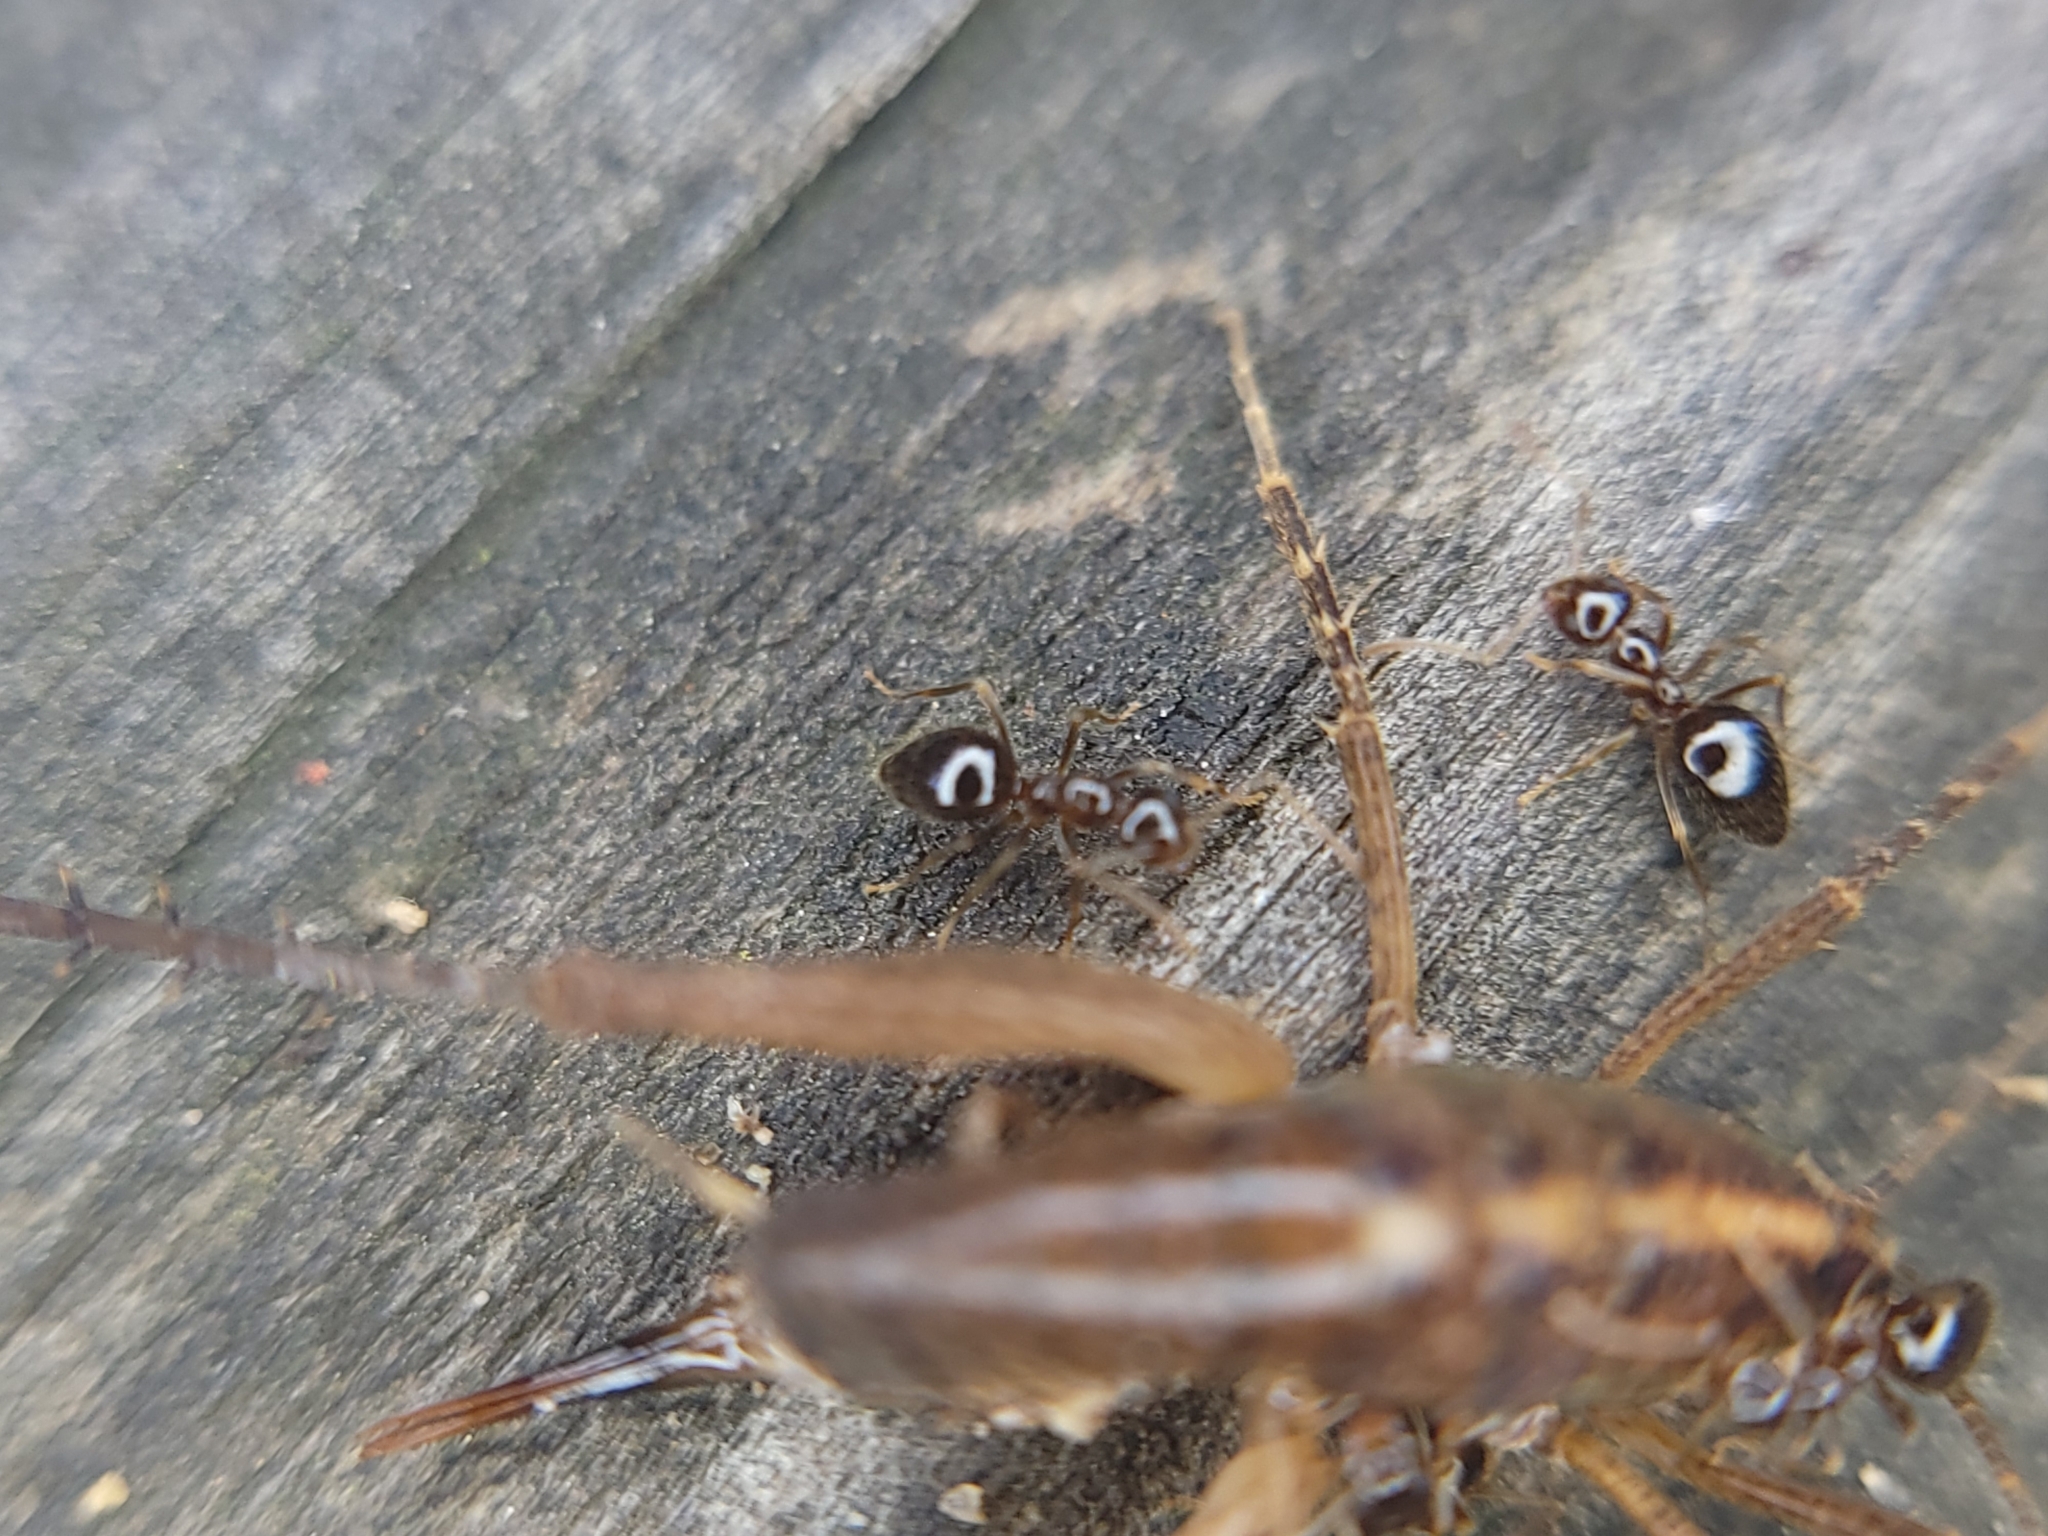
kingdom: Animalia
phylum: Arthropoda
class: Insecta
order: Hymenoptera
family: Formicidae
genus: Prenolepis
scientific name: Prenolepis imparis
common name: Small honey ant
